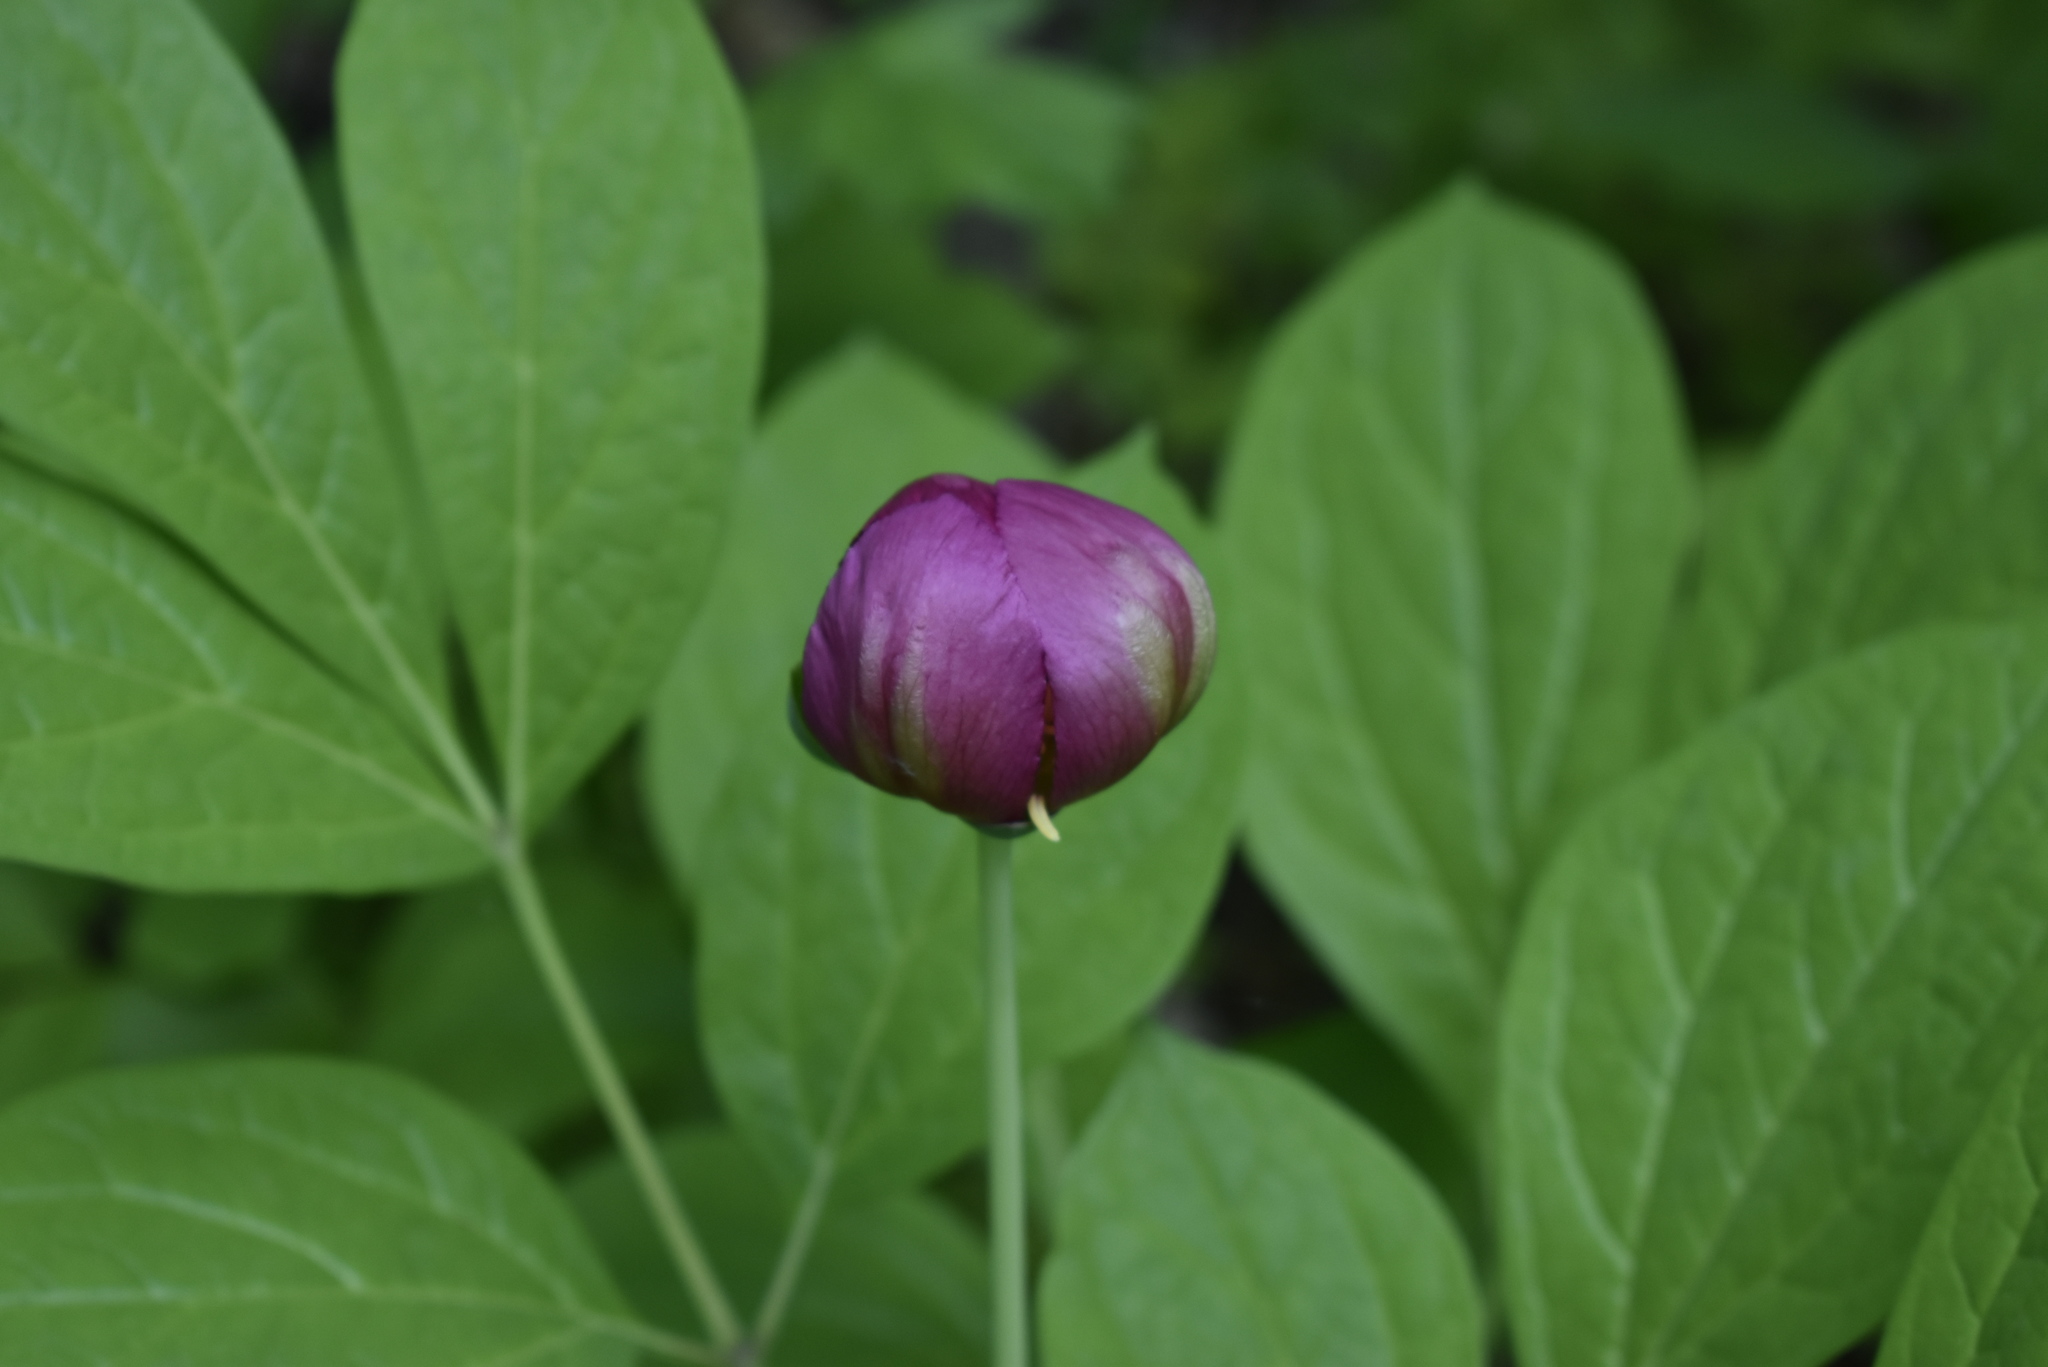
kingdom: Plantae
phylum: Tracheophyta
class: Magnoliopsida
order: Saxifragales
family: Paeoniaceae
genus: Paeonia
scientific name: Paeonia obovata
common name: Chinese peony
